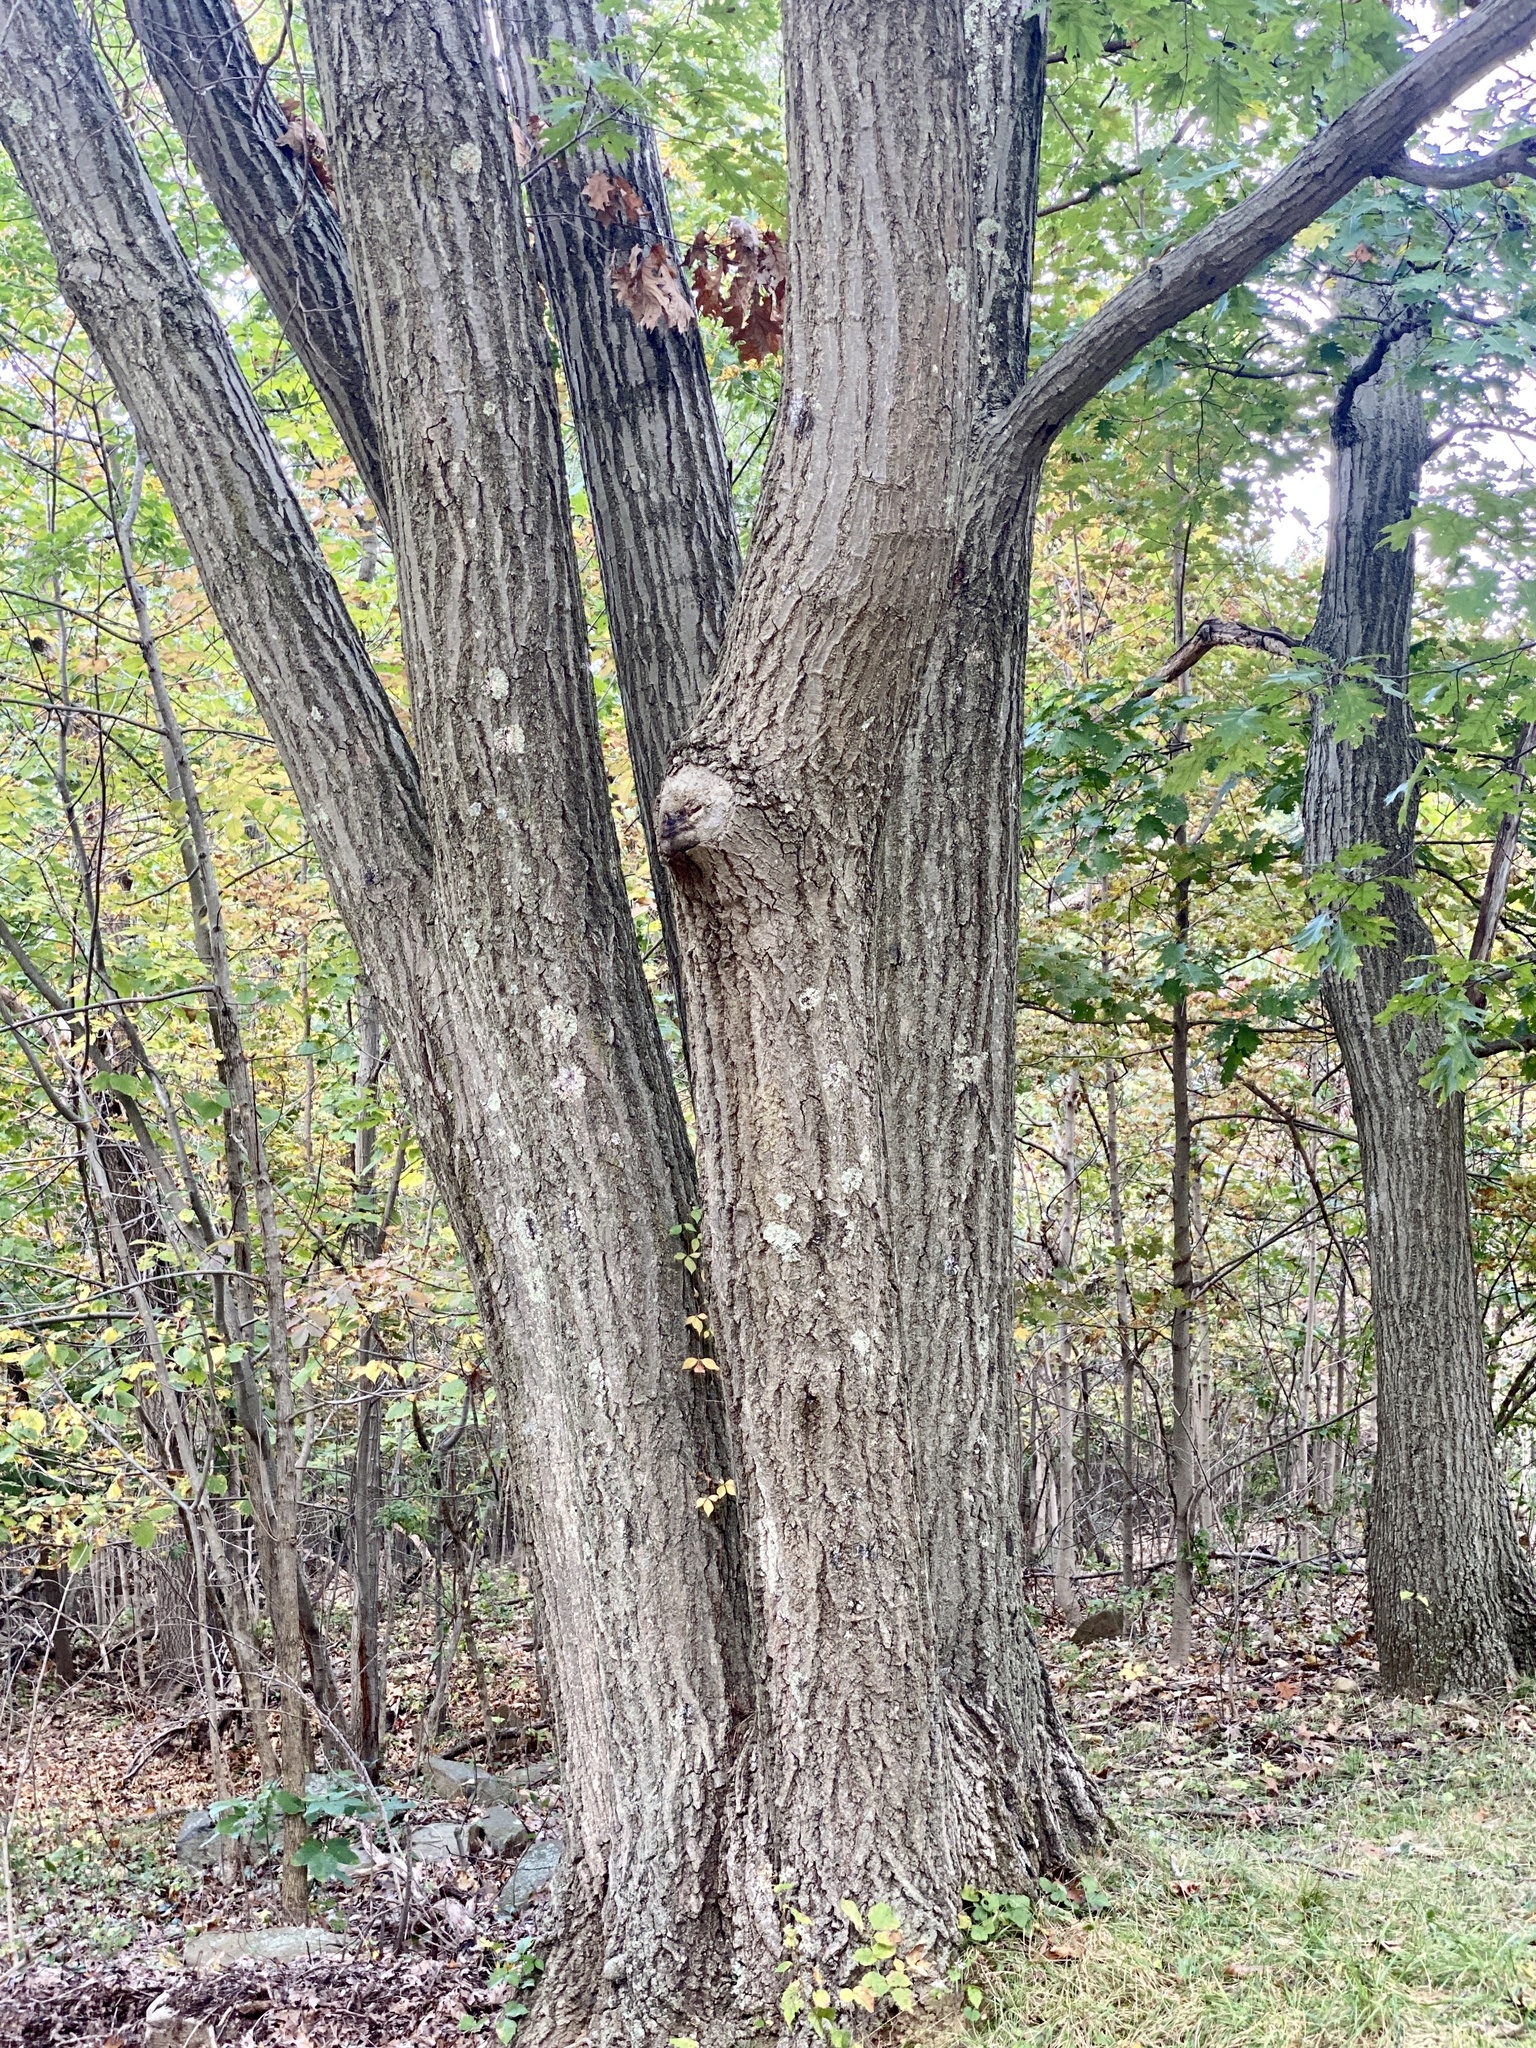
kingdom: Plantae
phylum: Tracheophyta
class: Magnoliopsida
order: Fagales
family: Fagaceae
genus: Quercus
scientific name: Quercus rubra
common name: Red oak
